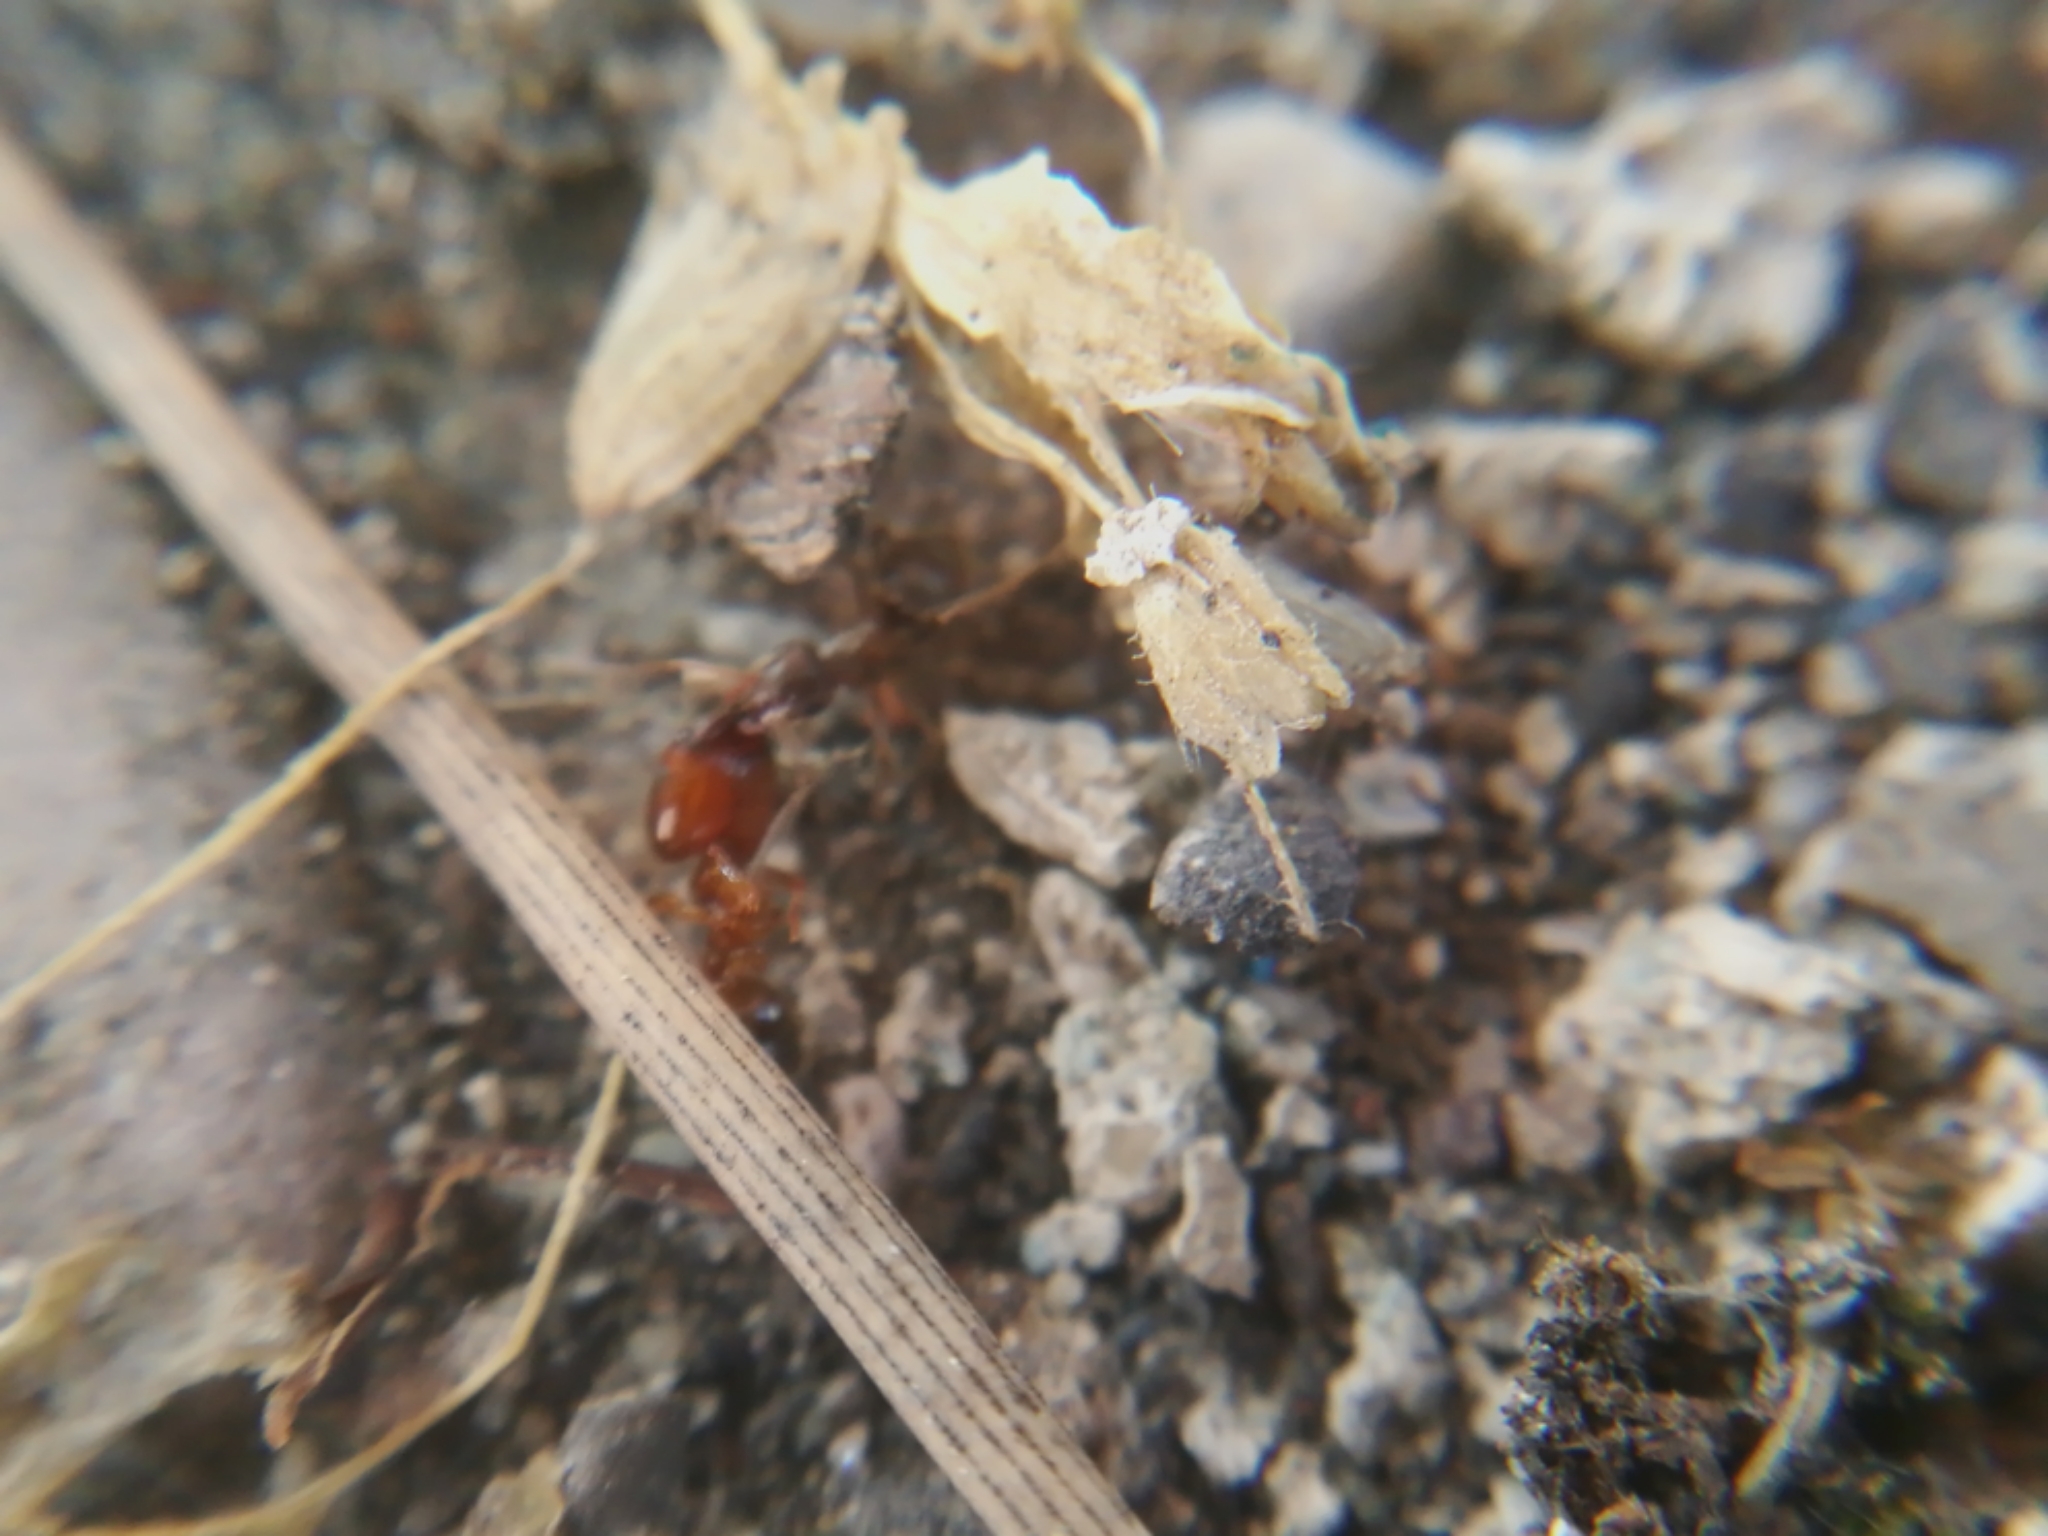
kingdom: Animalia
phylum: Arthropoda
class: Insecta
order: Hymenoptera
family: Formicidae
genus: Pheidole
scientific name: Pheidole pallidula
